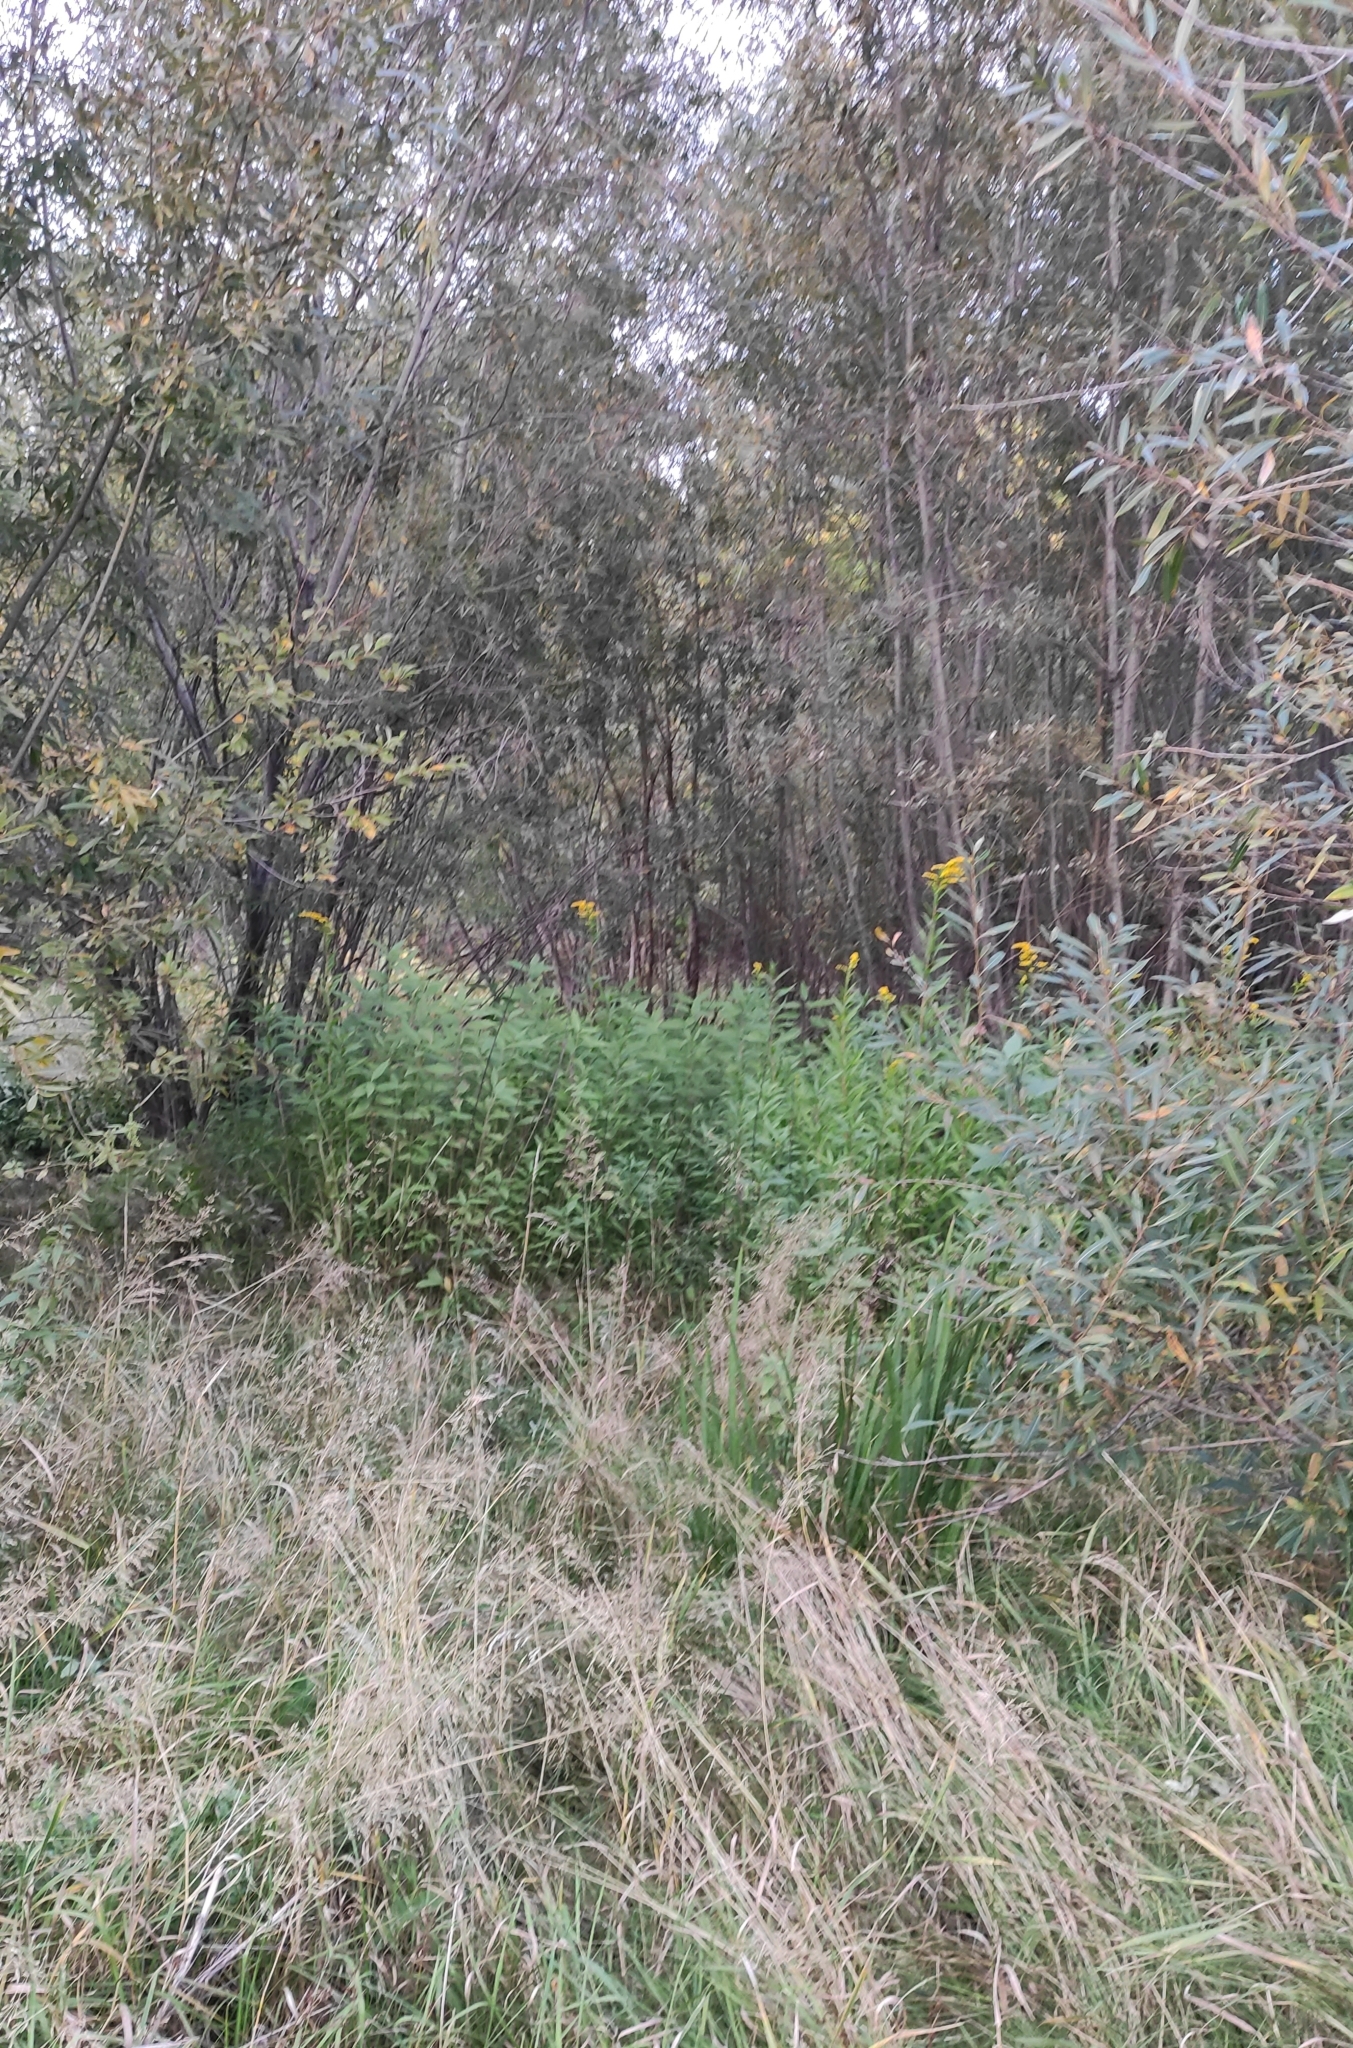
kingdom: Plantae
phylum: Tracheophyta
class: Magnoliopsida
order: Asterales
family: Asteraceae
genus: Solidago
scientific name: Solidago gigantea
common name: Giant goldenrod
